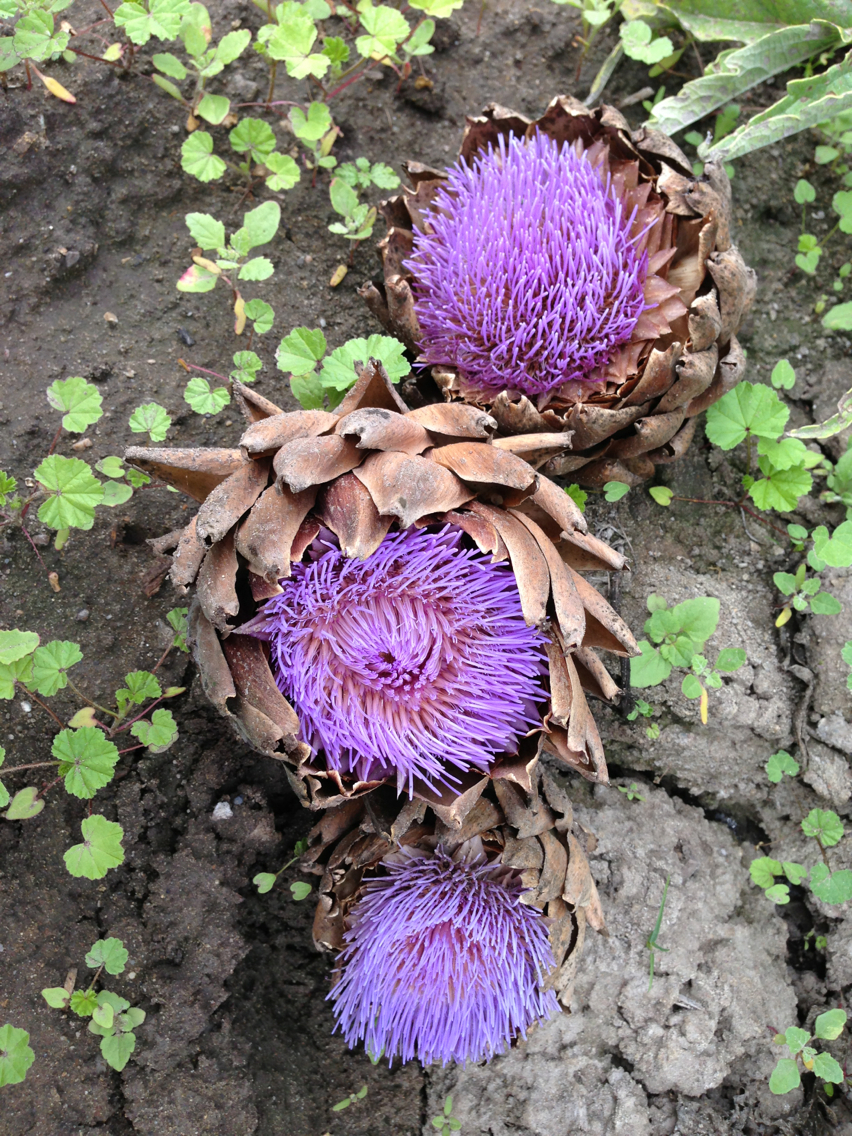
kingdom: Plantae
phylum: Tracheophyta
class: Magnoliopsida
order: Asterales
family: Asteraceae
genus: Cynara
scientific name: Cynara cardunculus
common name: Globe artichoke
